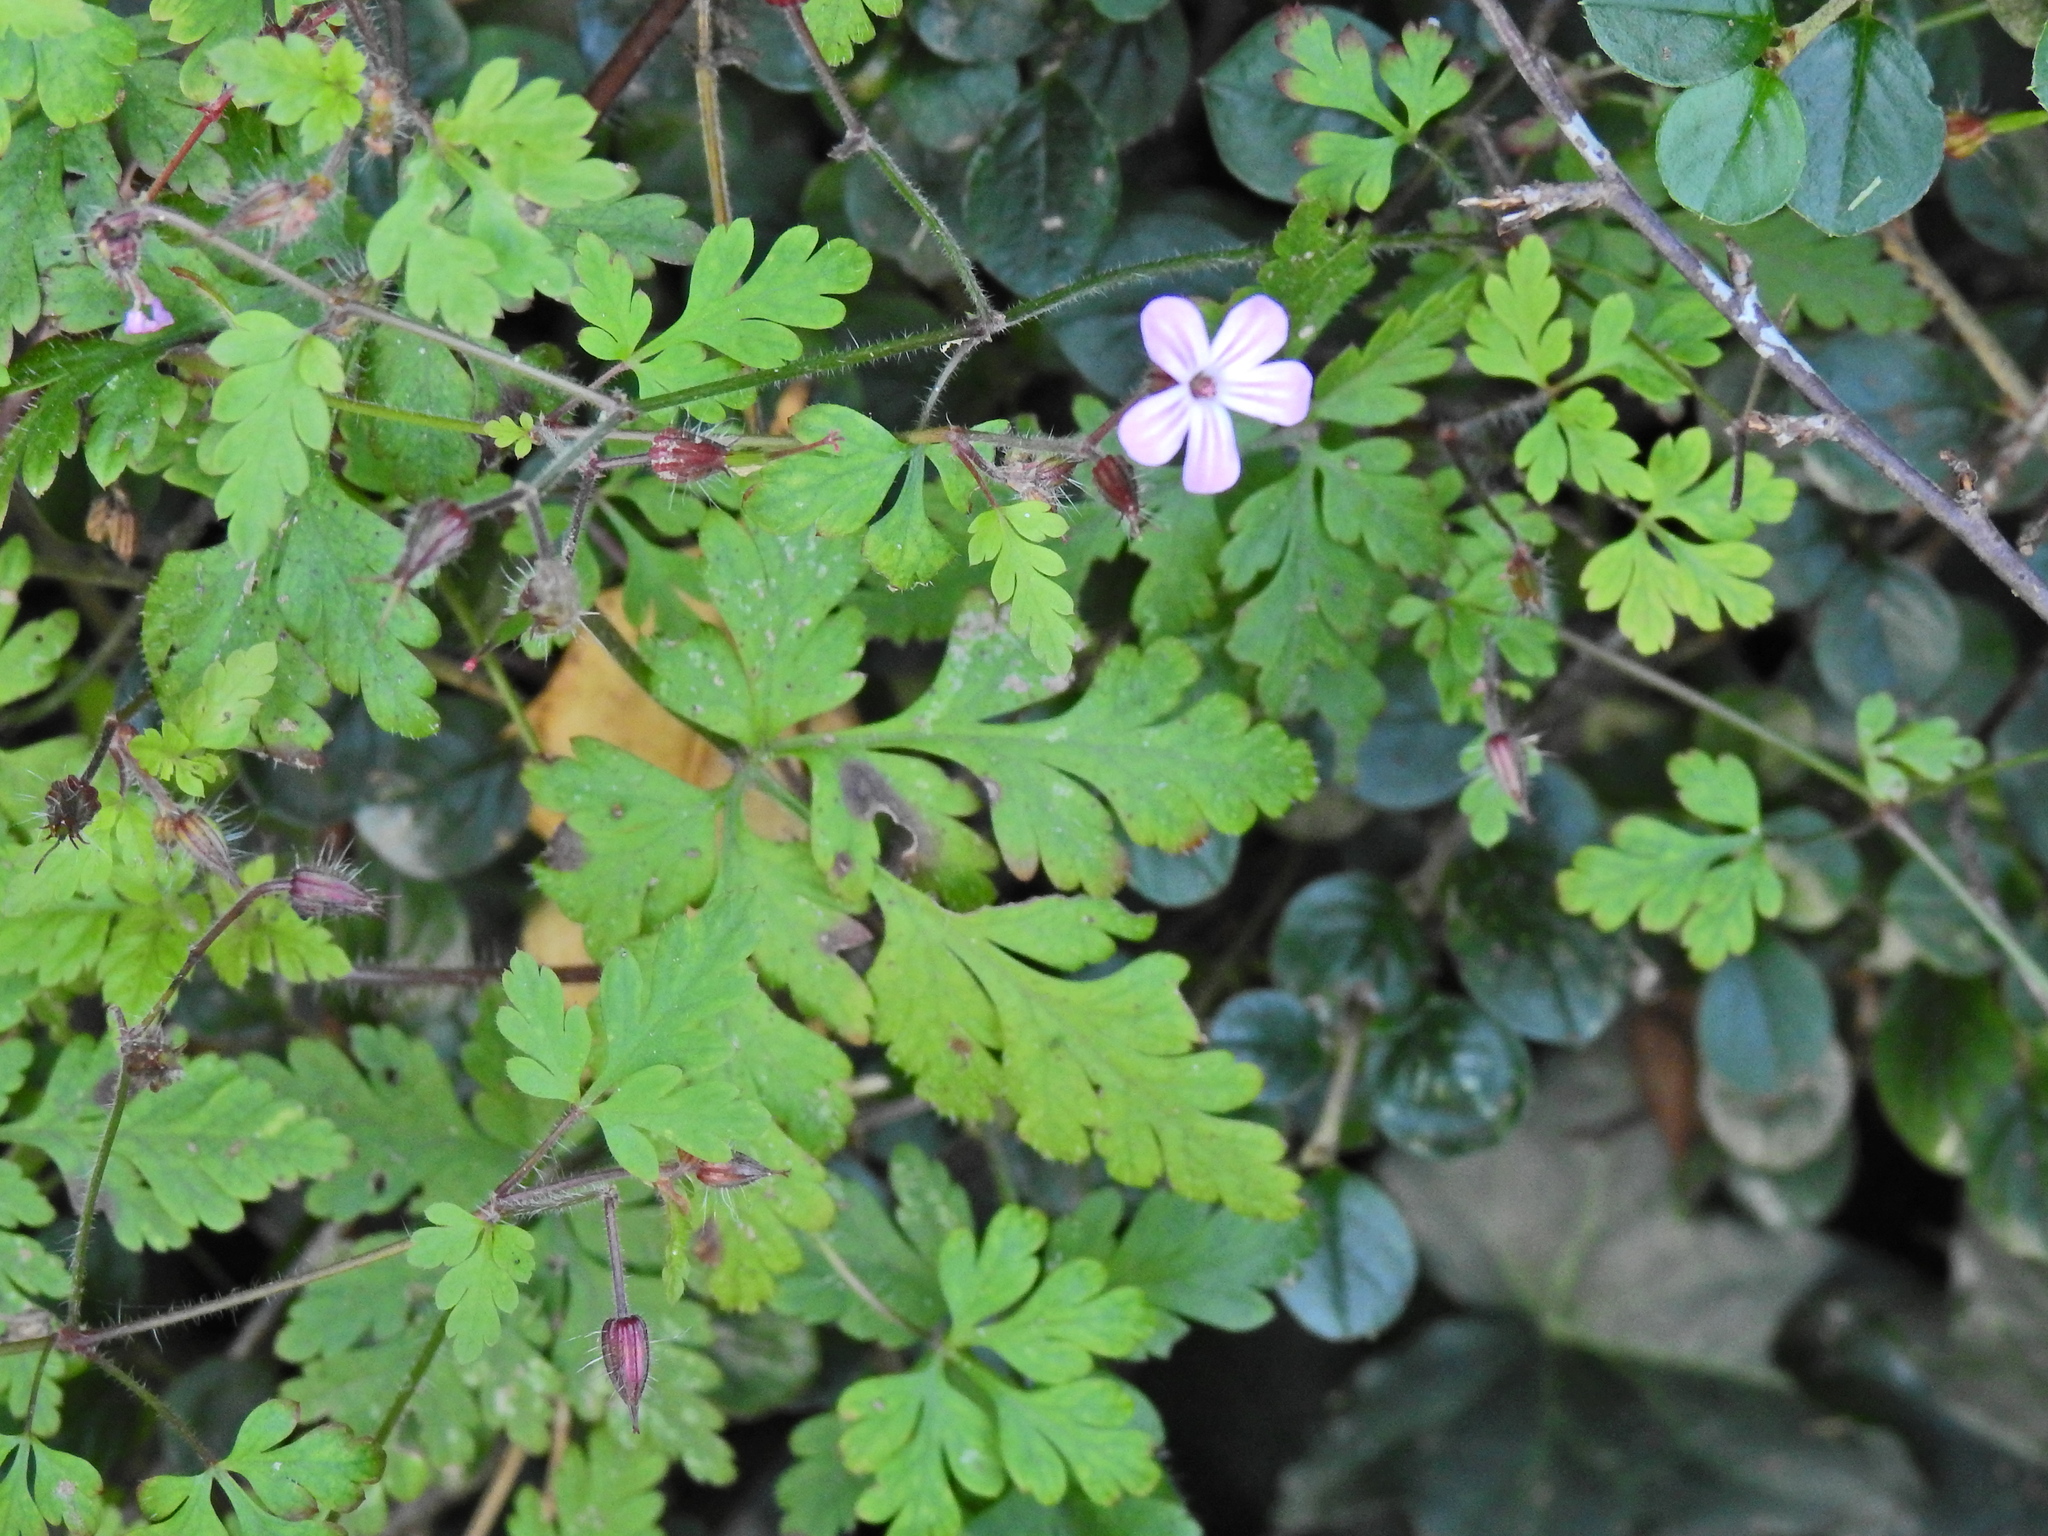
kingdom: Plantae
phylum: Tracheophyta
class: Magnoliopsida
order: Geraniales
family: Geraniaceae
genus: Geranium
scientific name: Geranium robertianum
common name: Herb-robert
